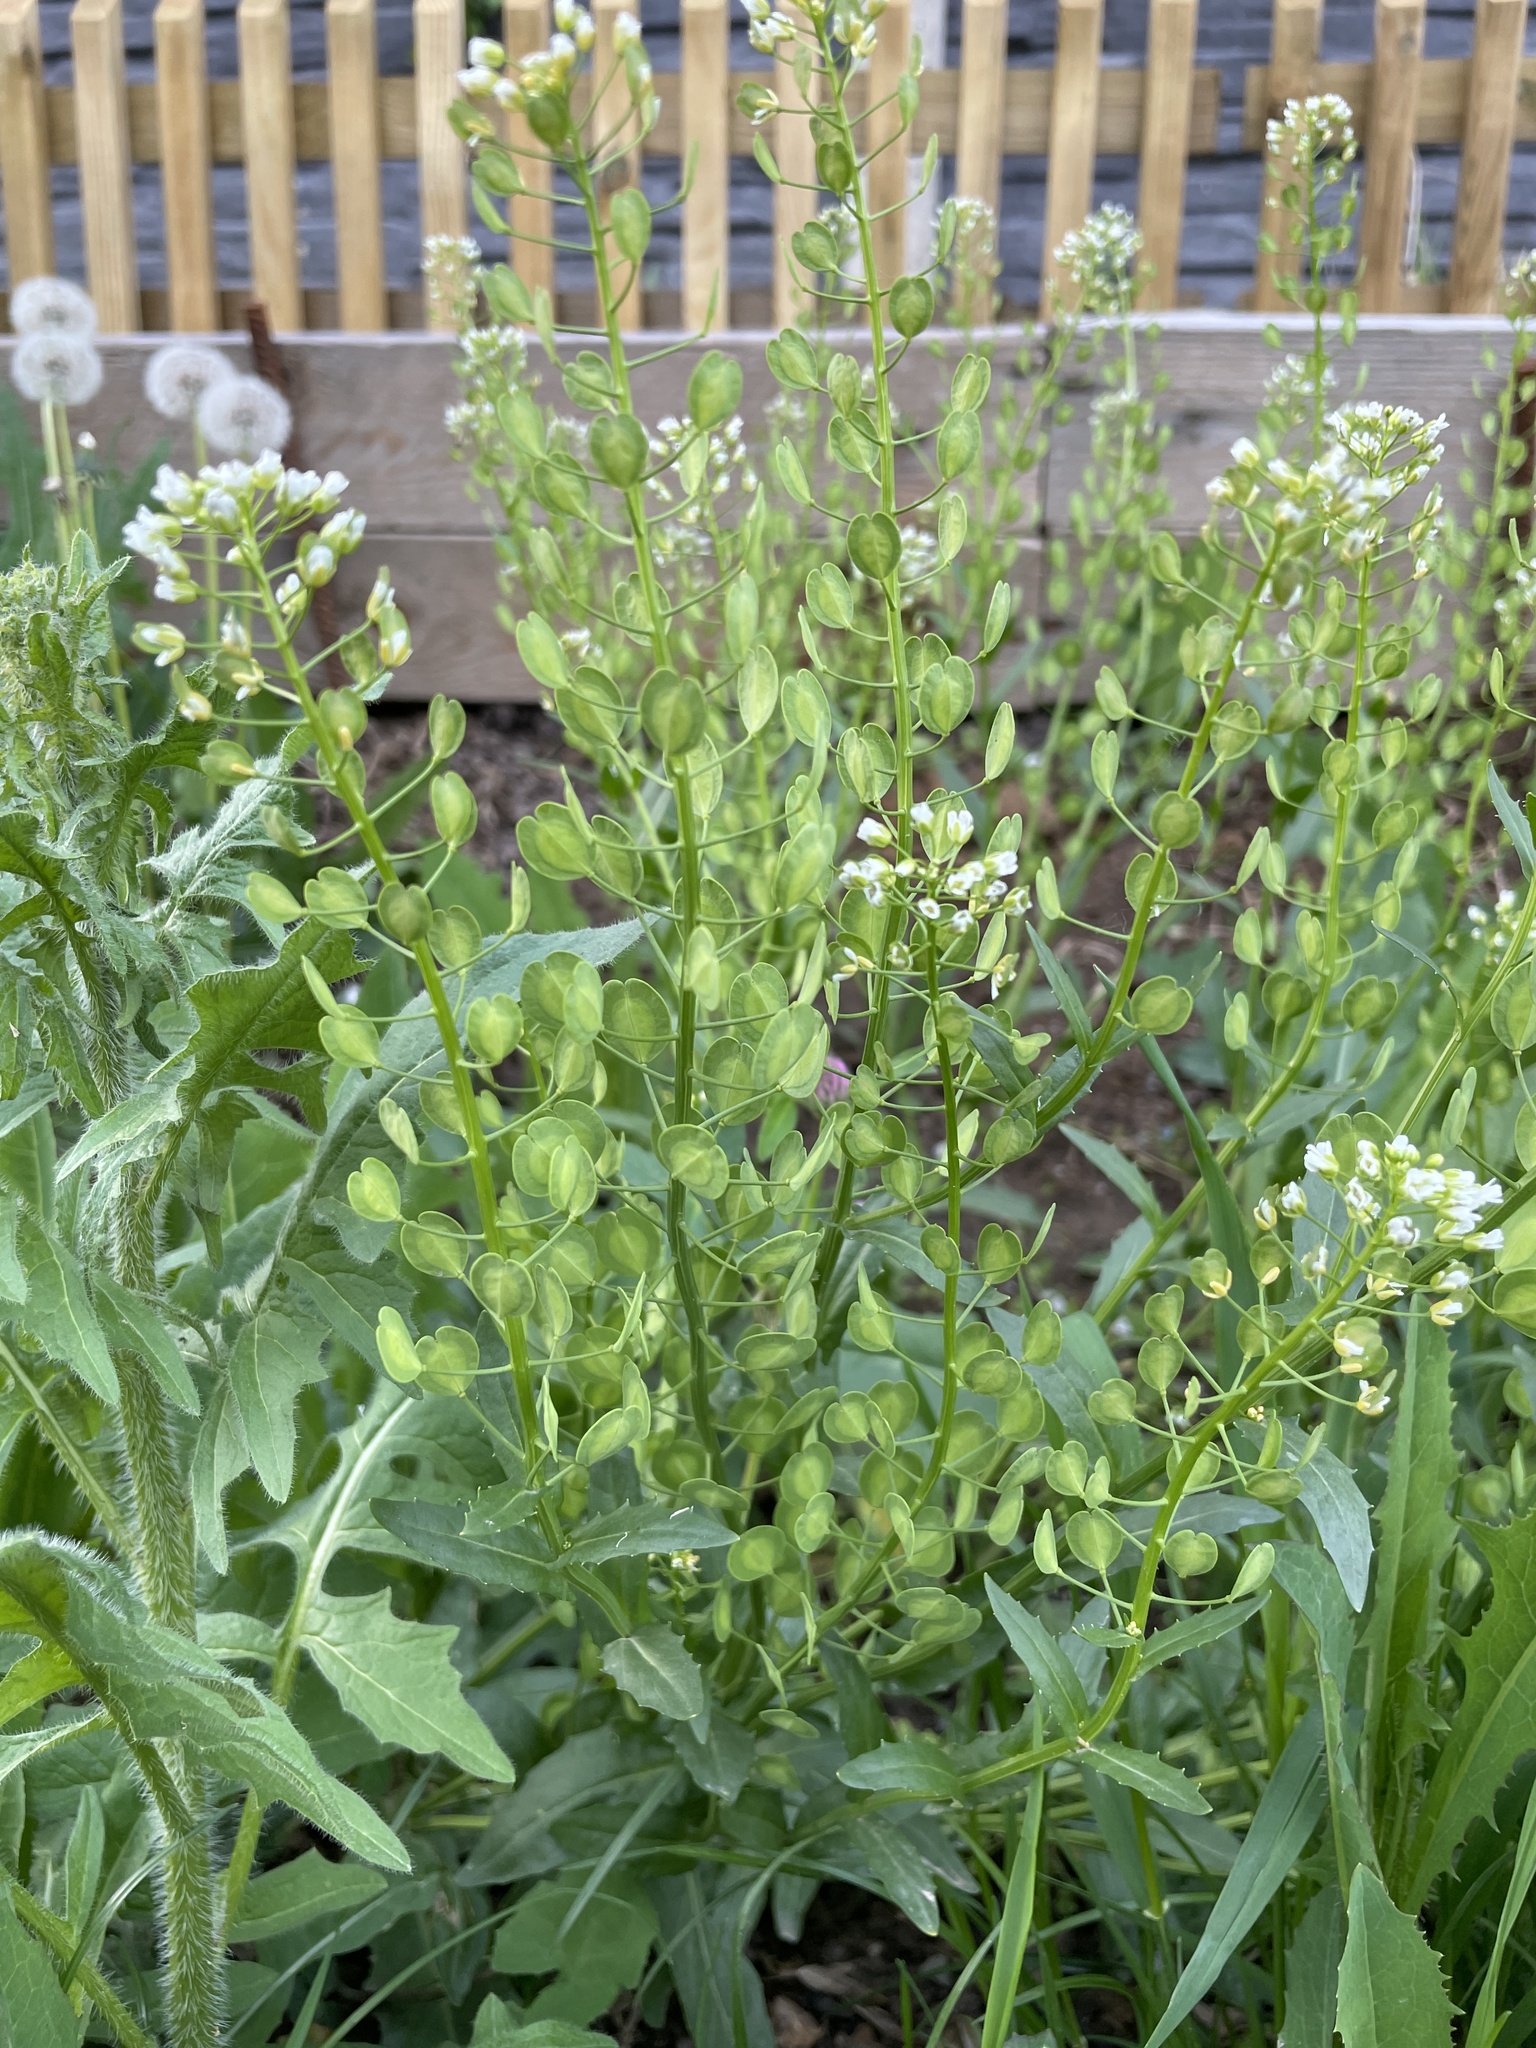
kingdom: Plantae
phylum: Tracheophyta
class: Magnoliopsida
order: Brassicales
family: Brassicaceae
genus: Thlaspi
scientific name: Thlaspi arvense
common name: Field pennycress
